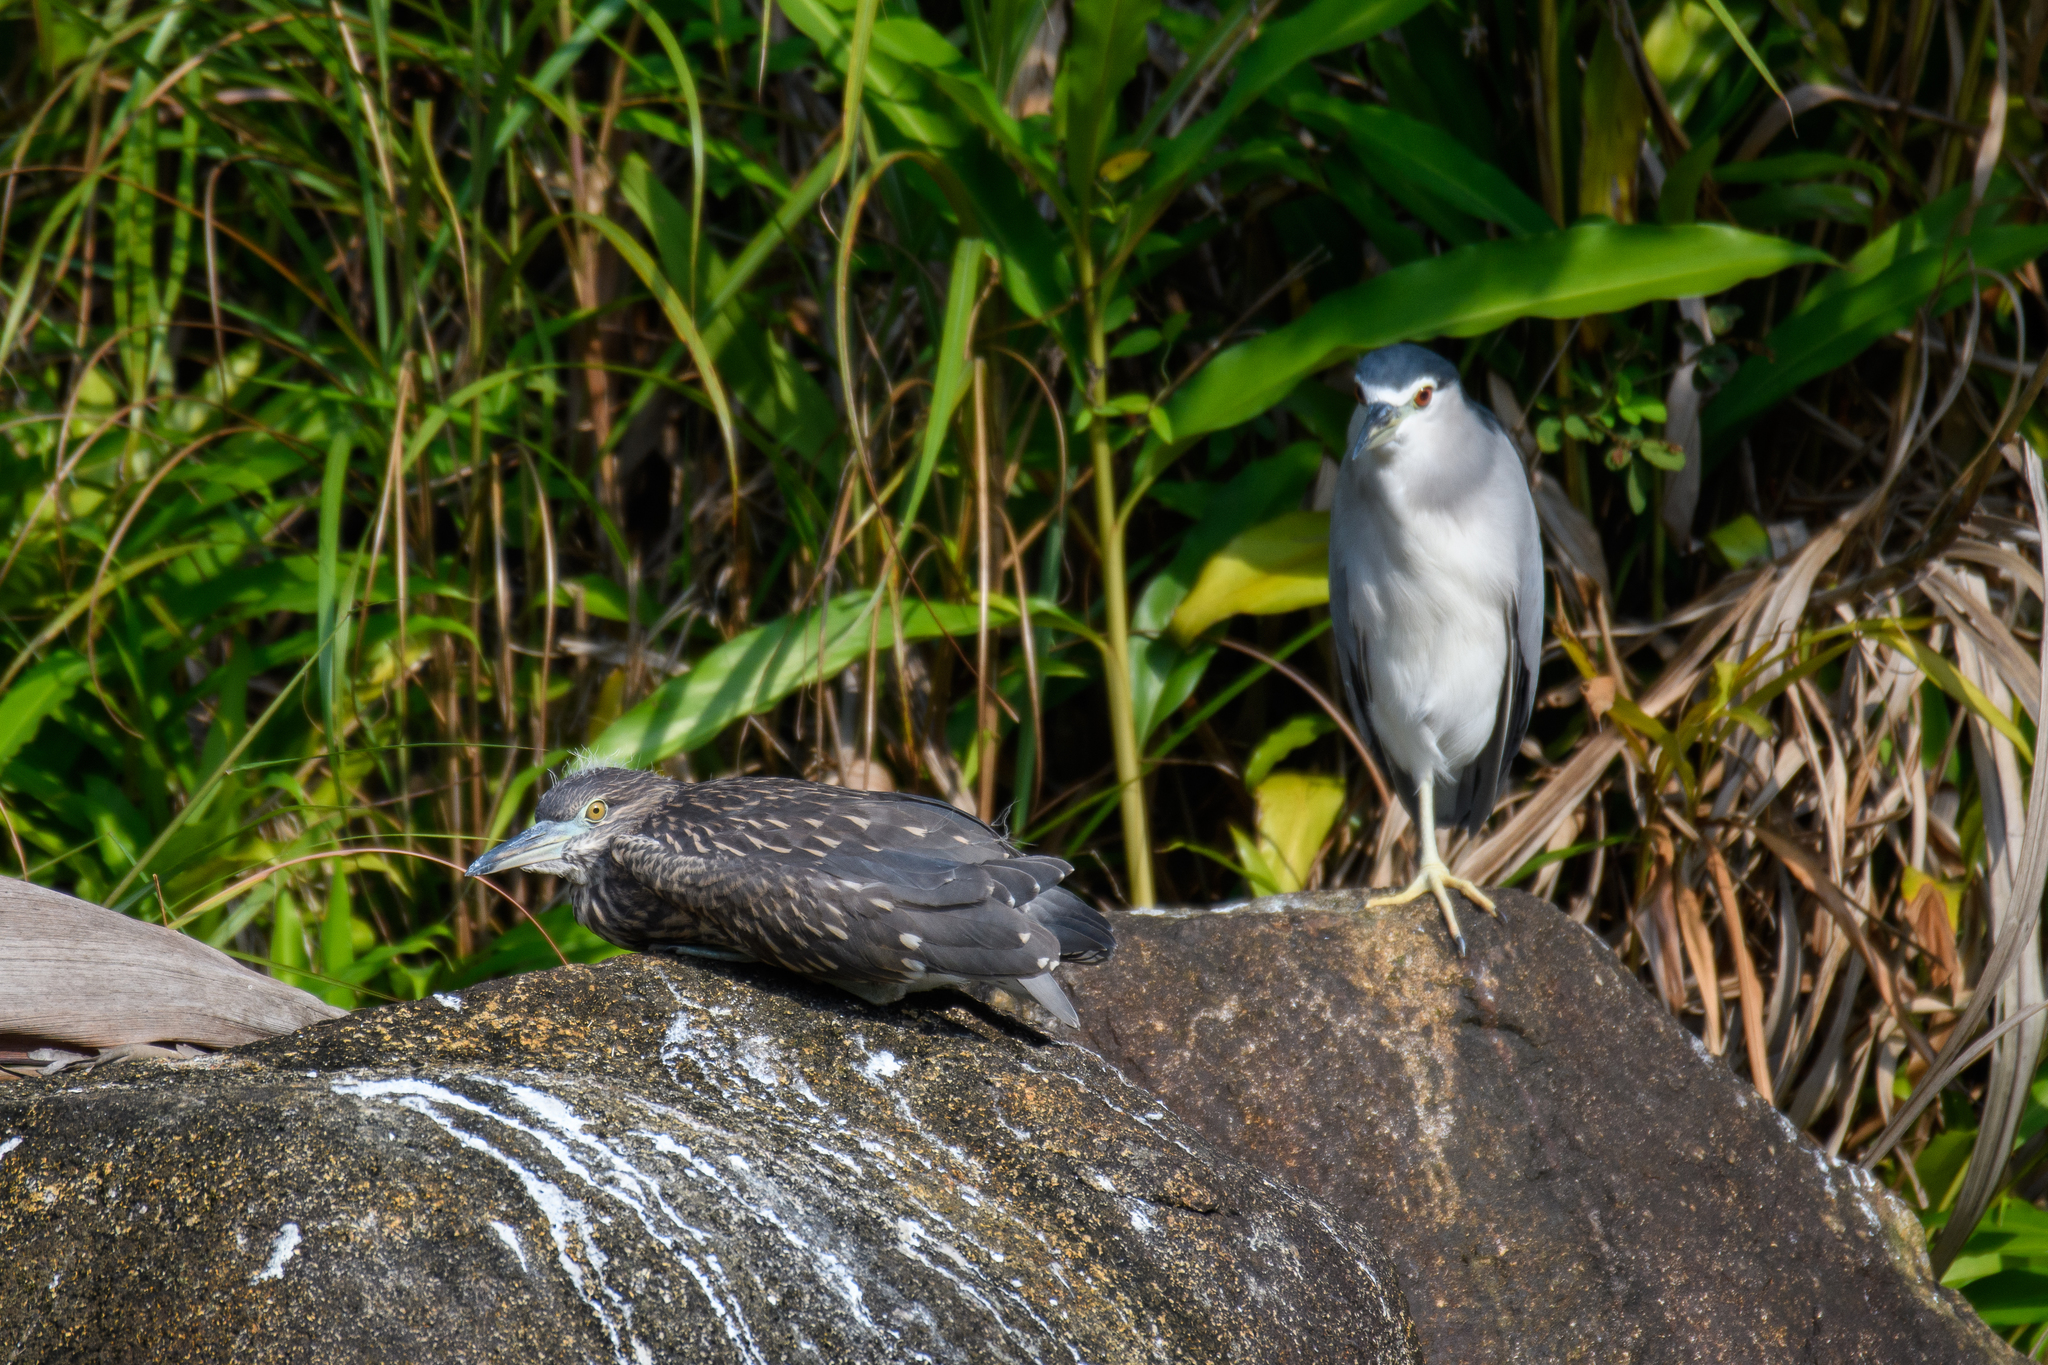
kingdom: Animalia
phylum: Chordata
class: Aves
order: Pelecaniformes
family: Ardeidae
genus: Nycticorax
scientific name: Nycticorax nycticorax
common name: Black-crowned night heron
